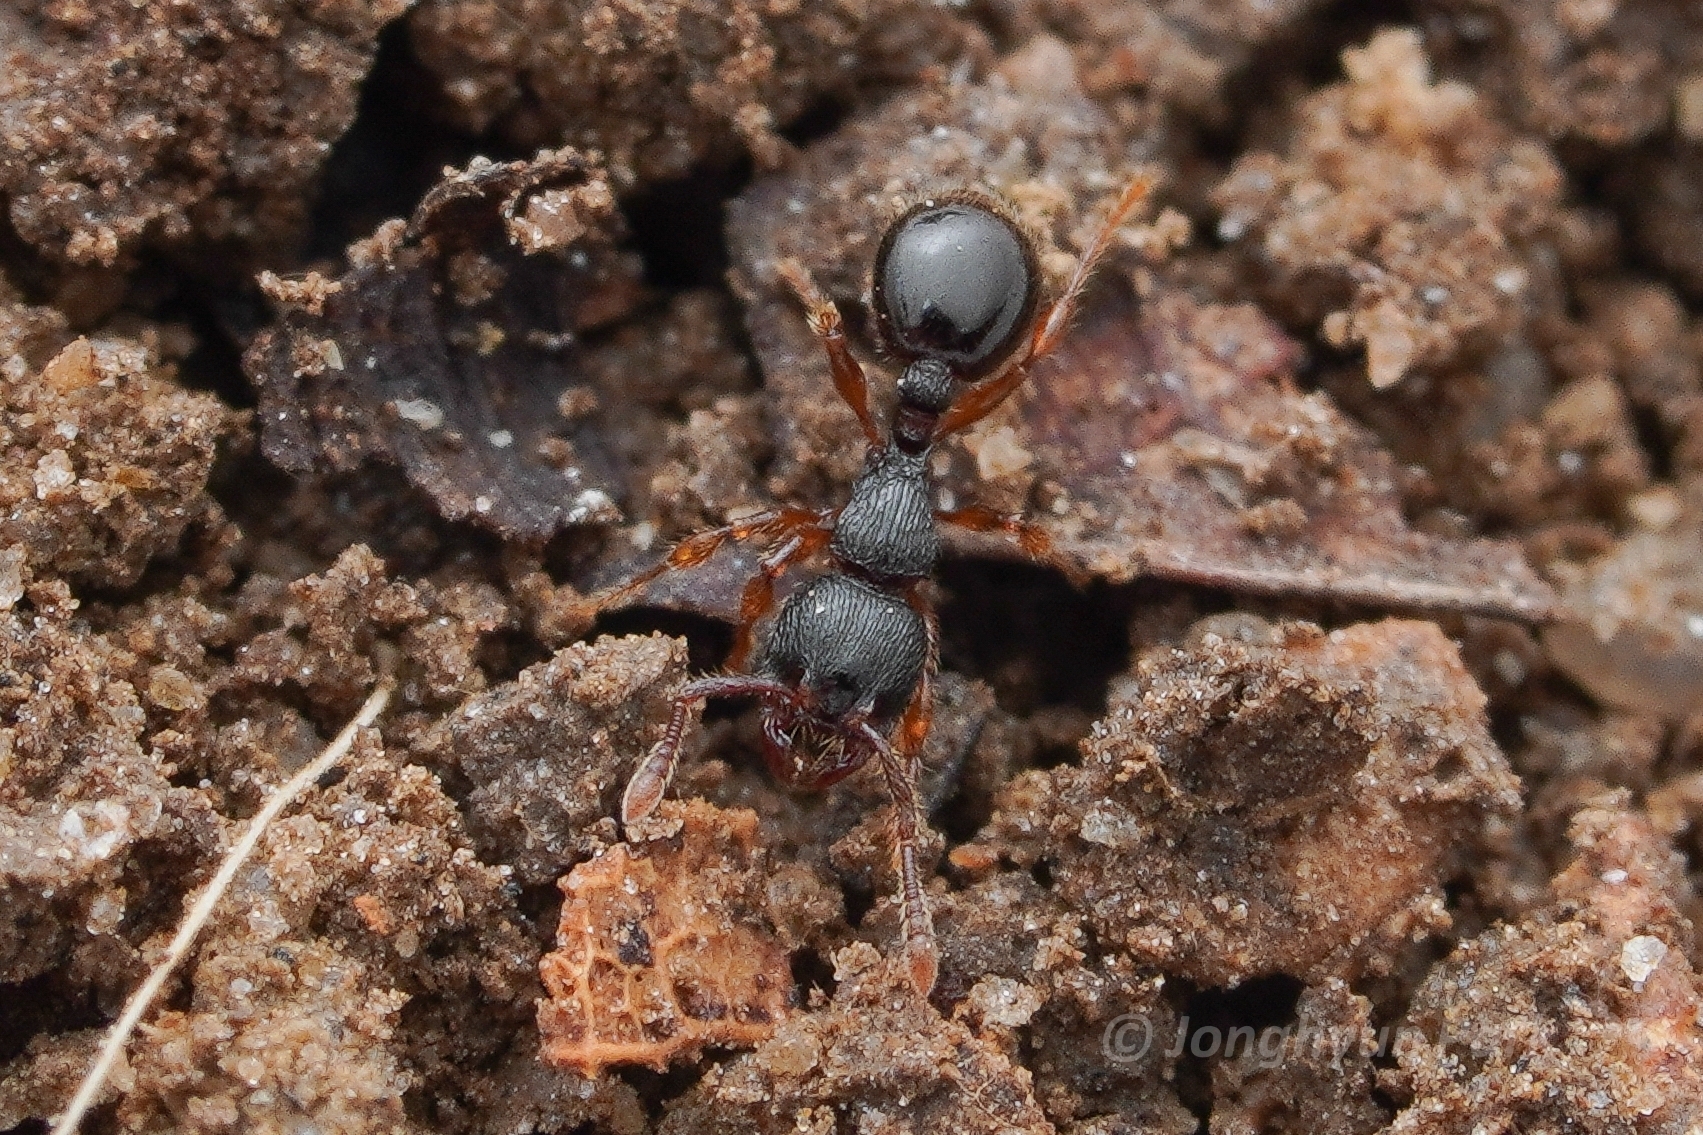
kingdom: Animalia
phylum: Arthropoda
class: Insecta
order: Hymenoptera
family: Formicidae
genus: Myrmecina
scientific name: Myrmecina americana
